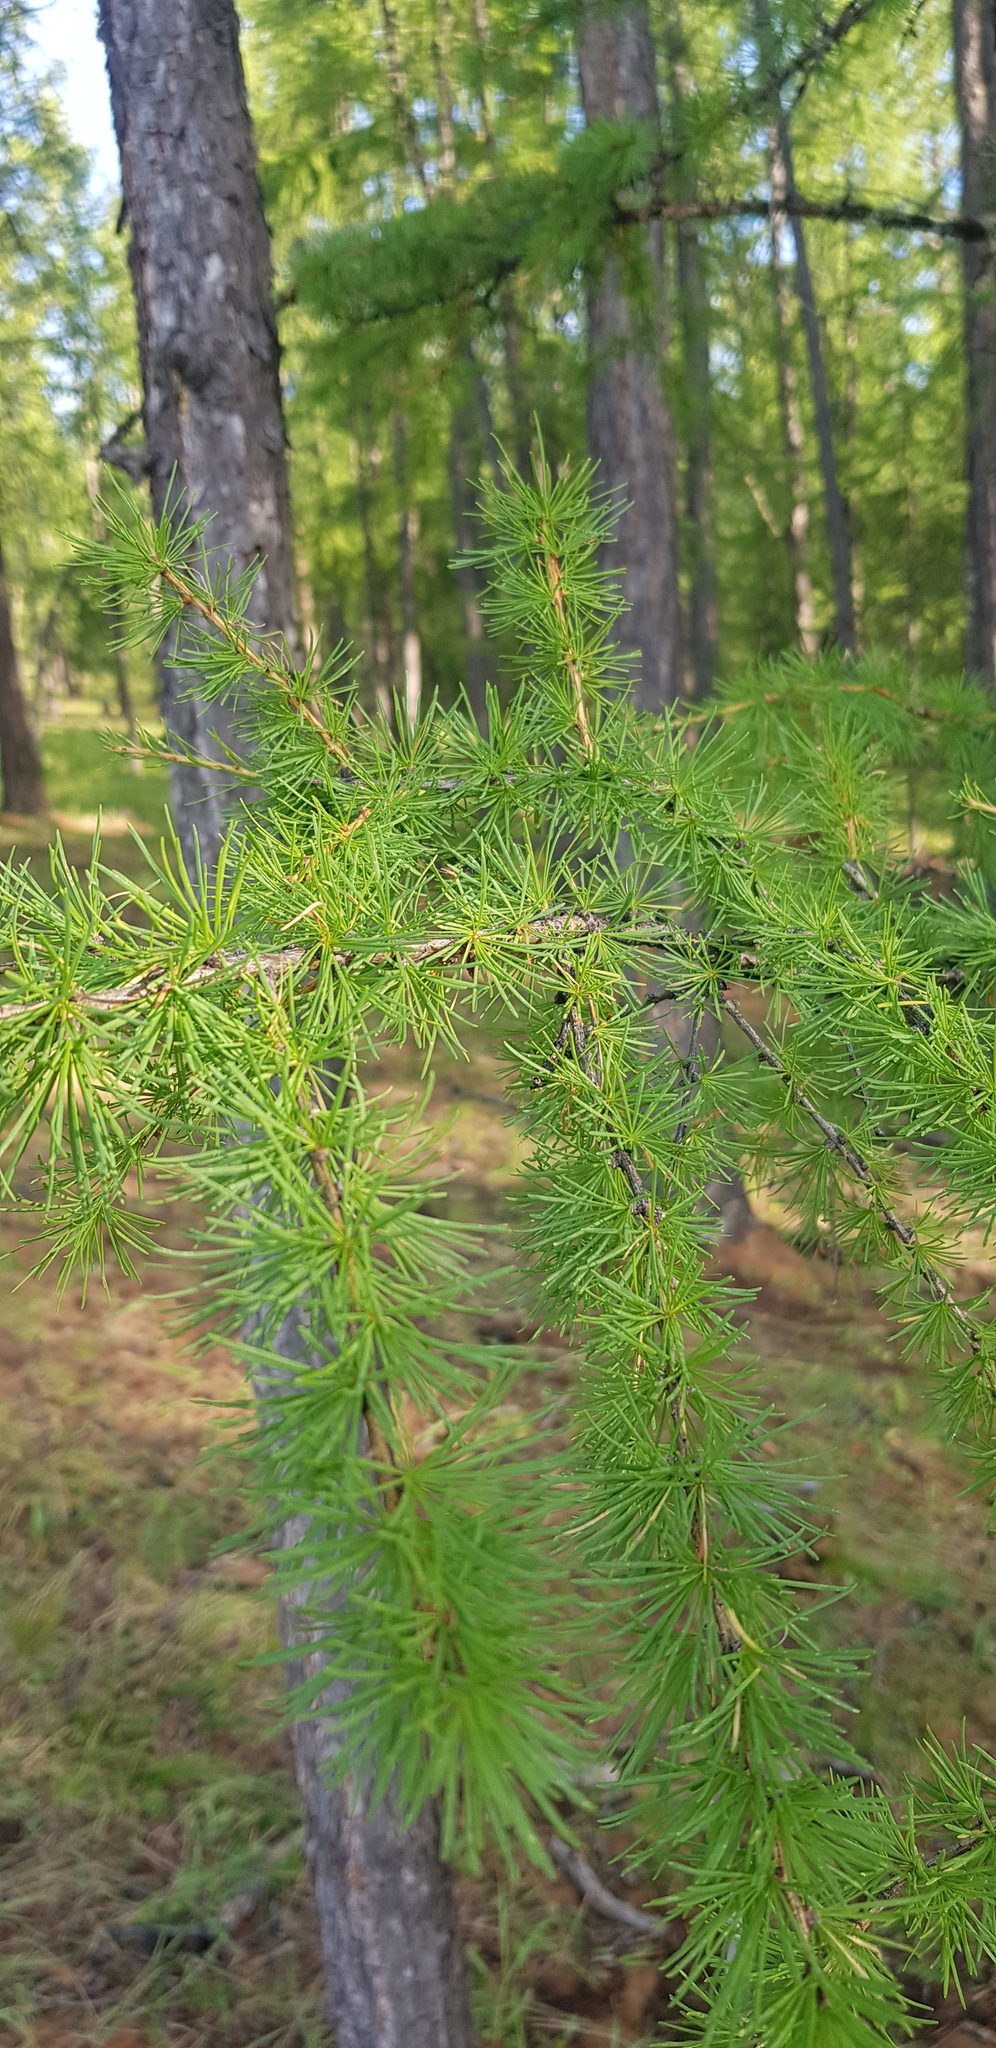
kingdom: Plantae
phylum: Tracheophyta
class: Pinopsida
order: Pinales
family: Pinaceae
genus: Larix
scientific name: Larix sibirica
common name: Siberian larch
